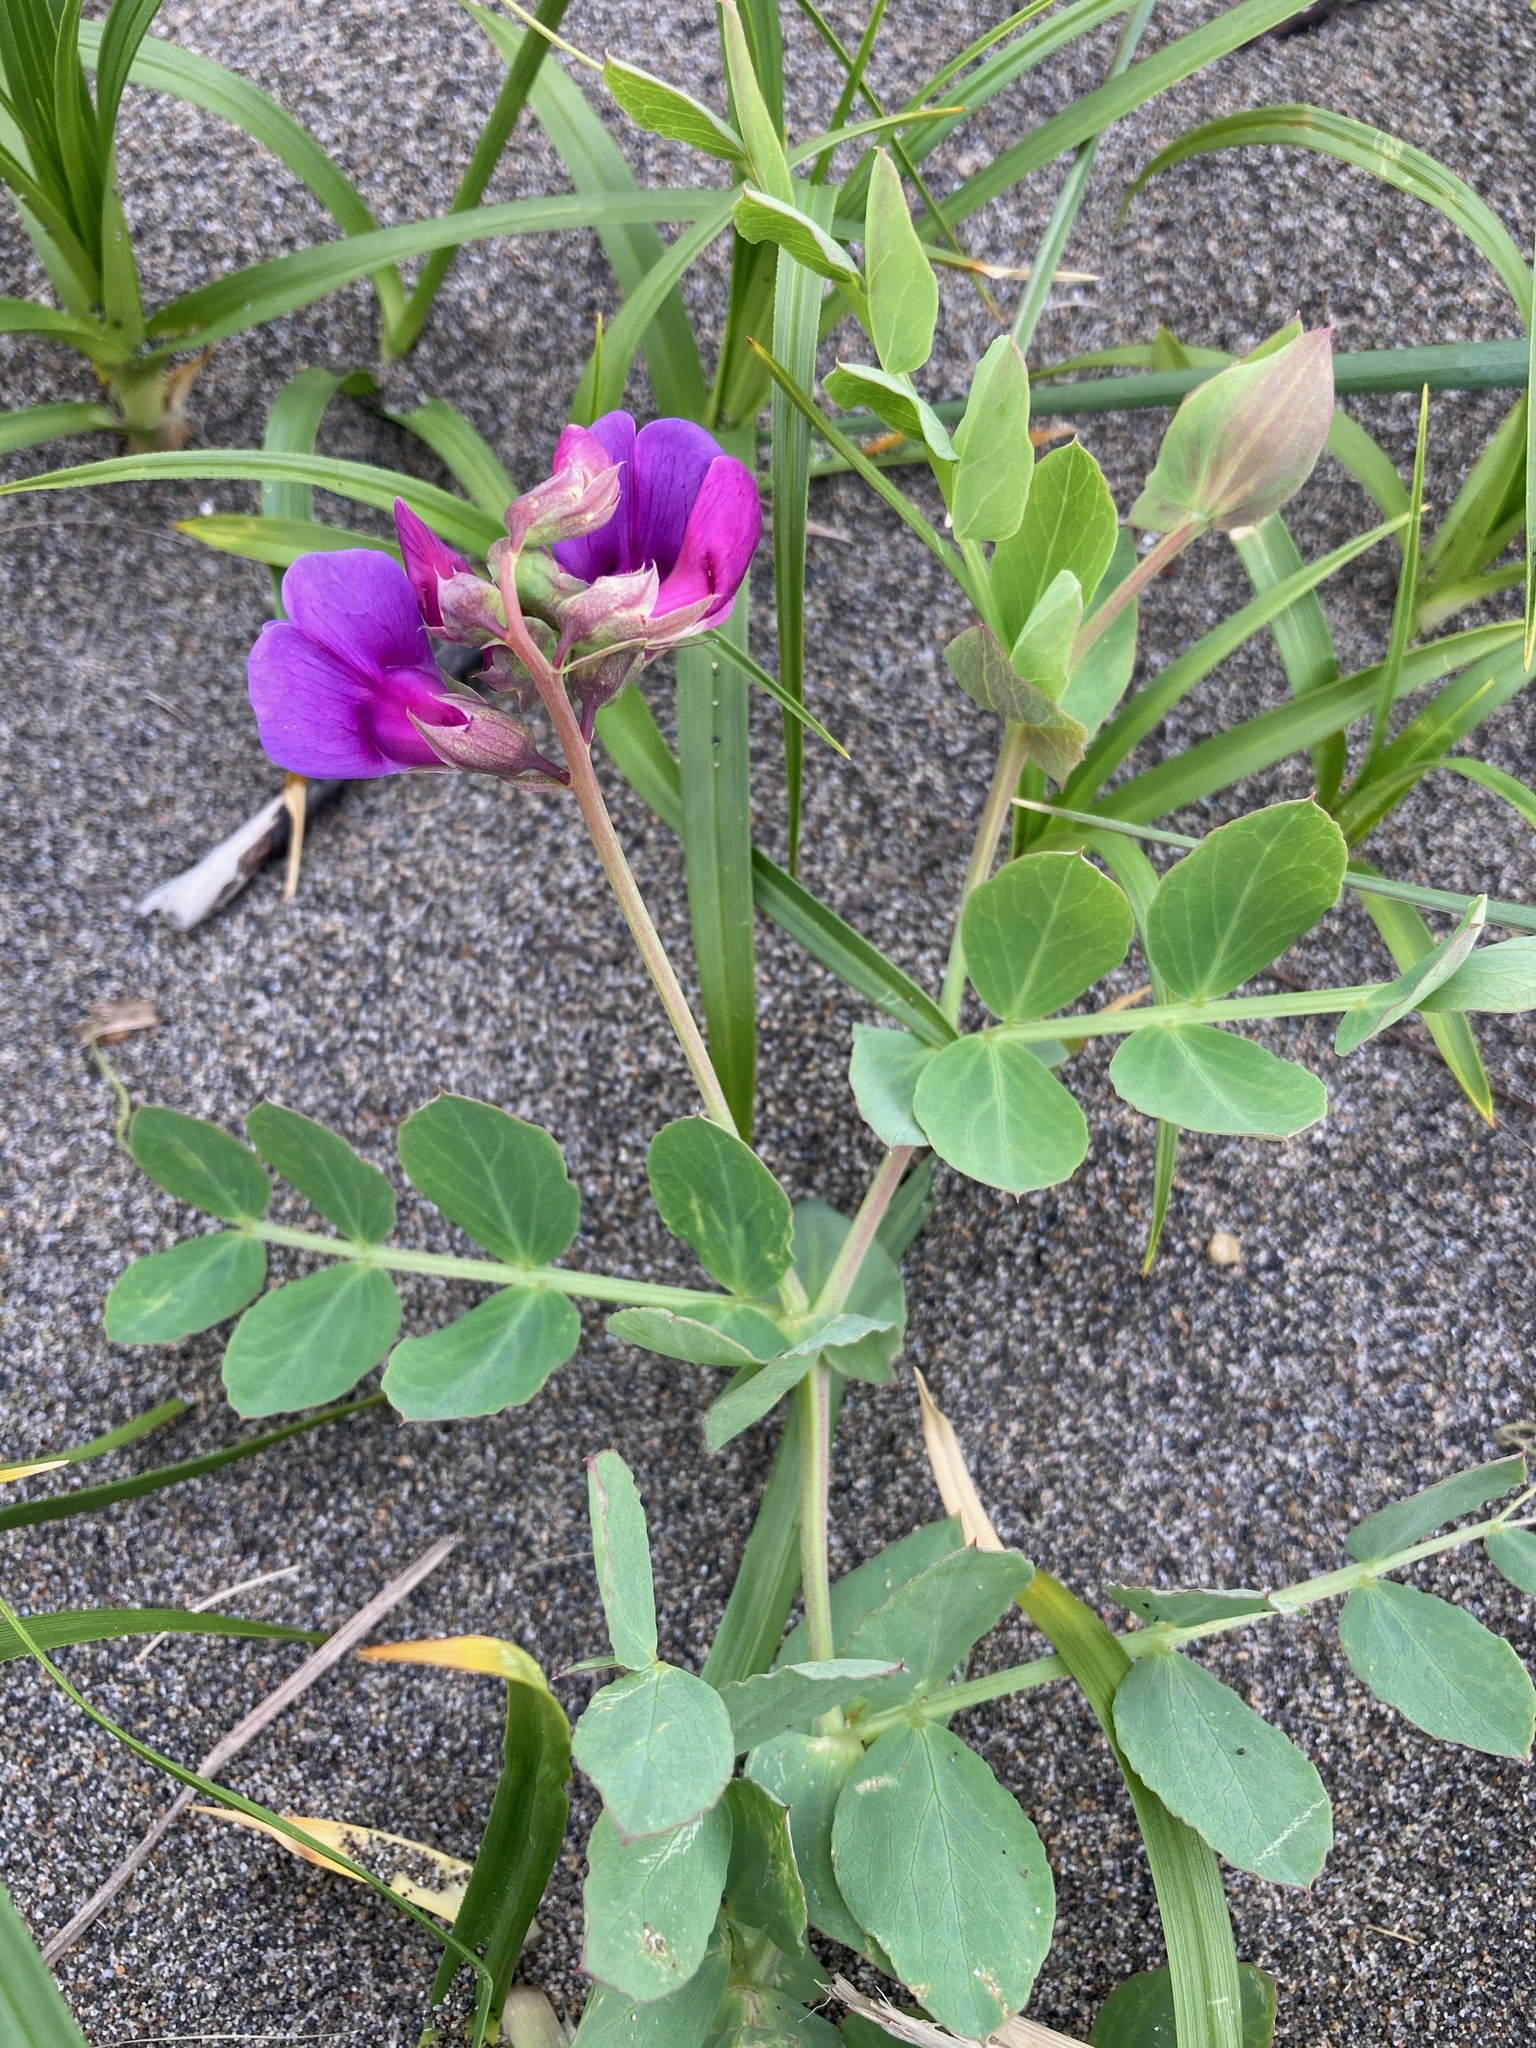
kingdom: Plantae
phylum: Tracheophyta
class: Magnoliopsida
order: Fabales
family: Fabaceae
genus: Lathyrus
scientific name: Lathyrus japonicus
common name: Sea pea
